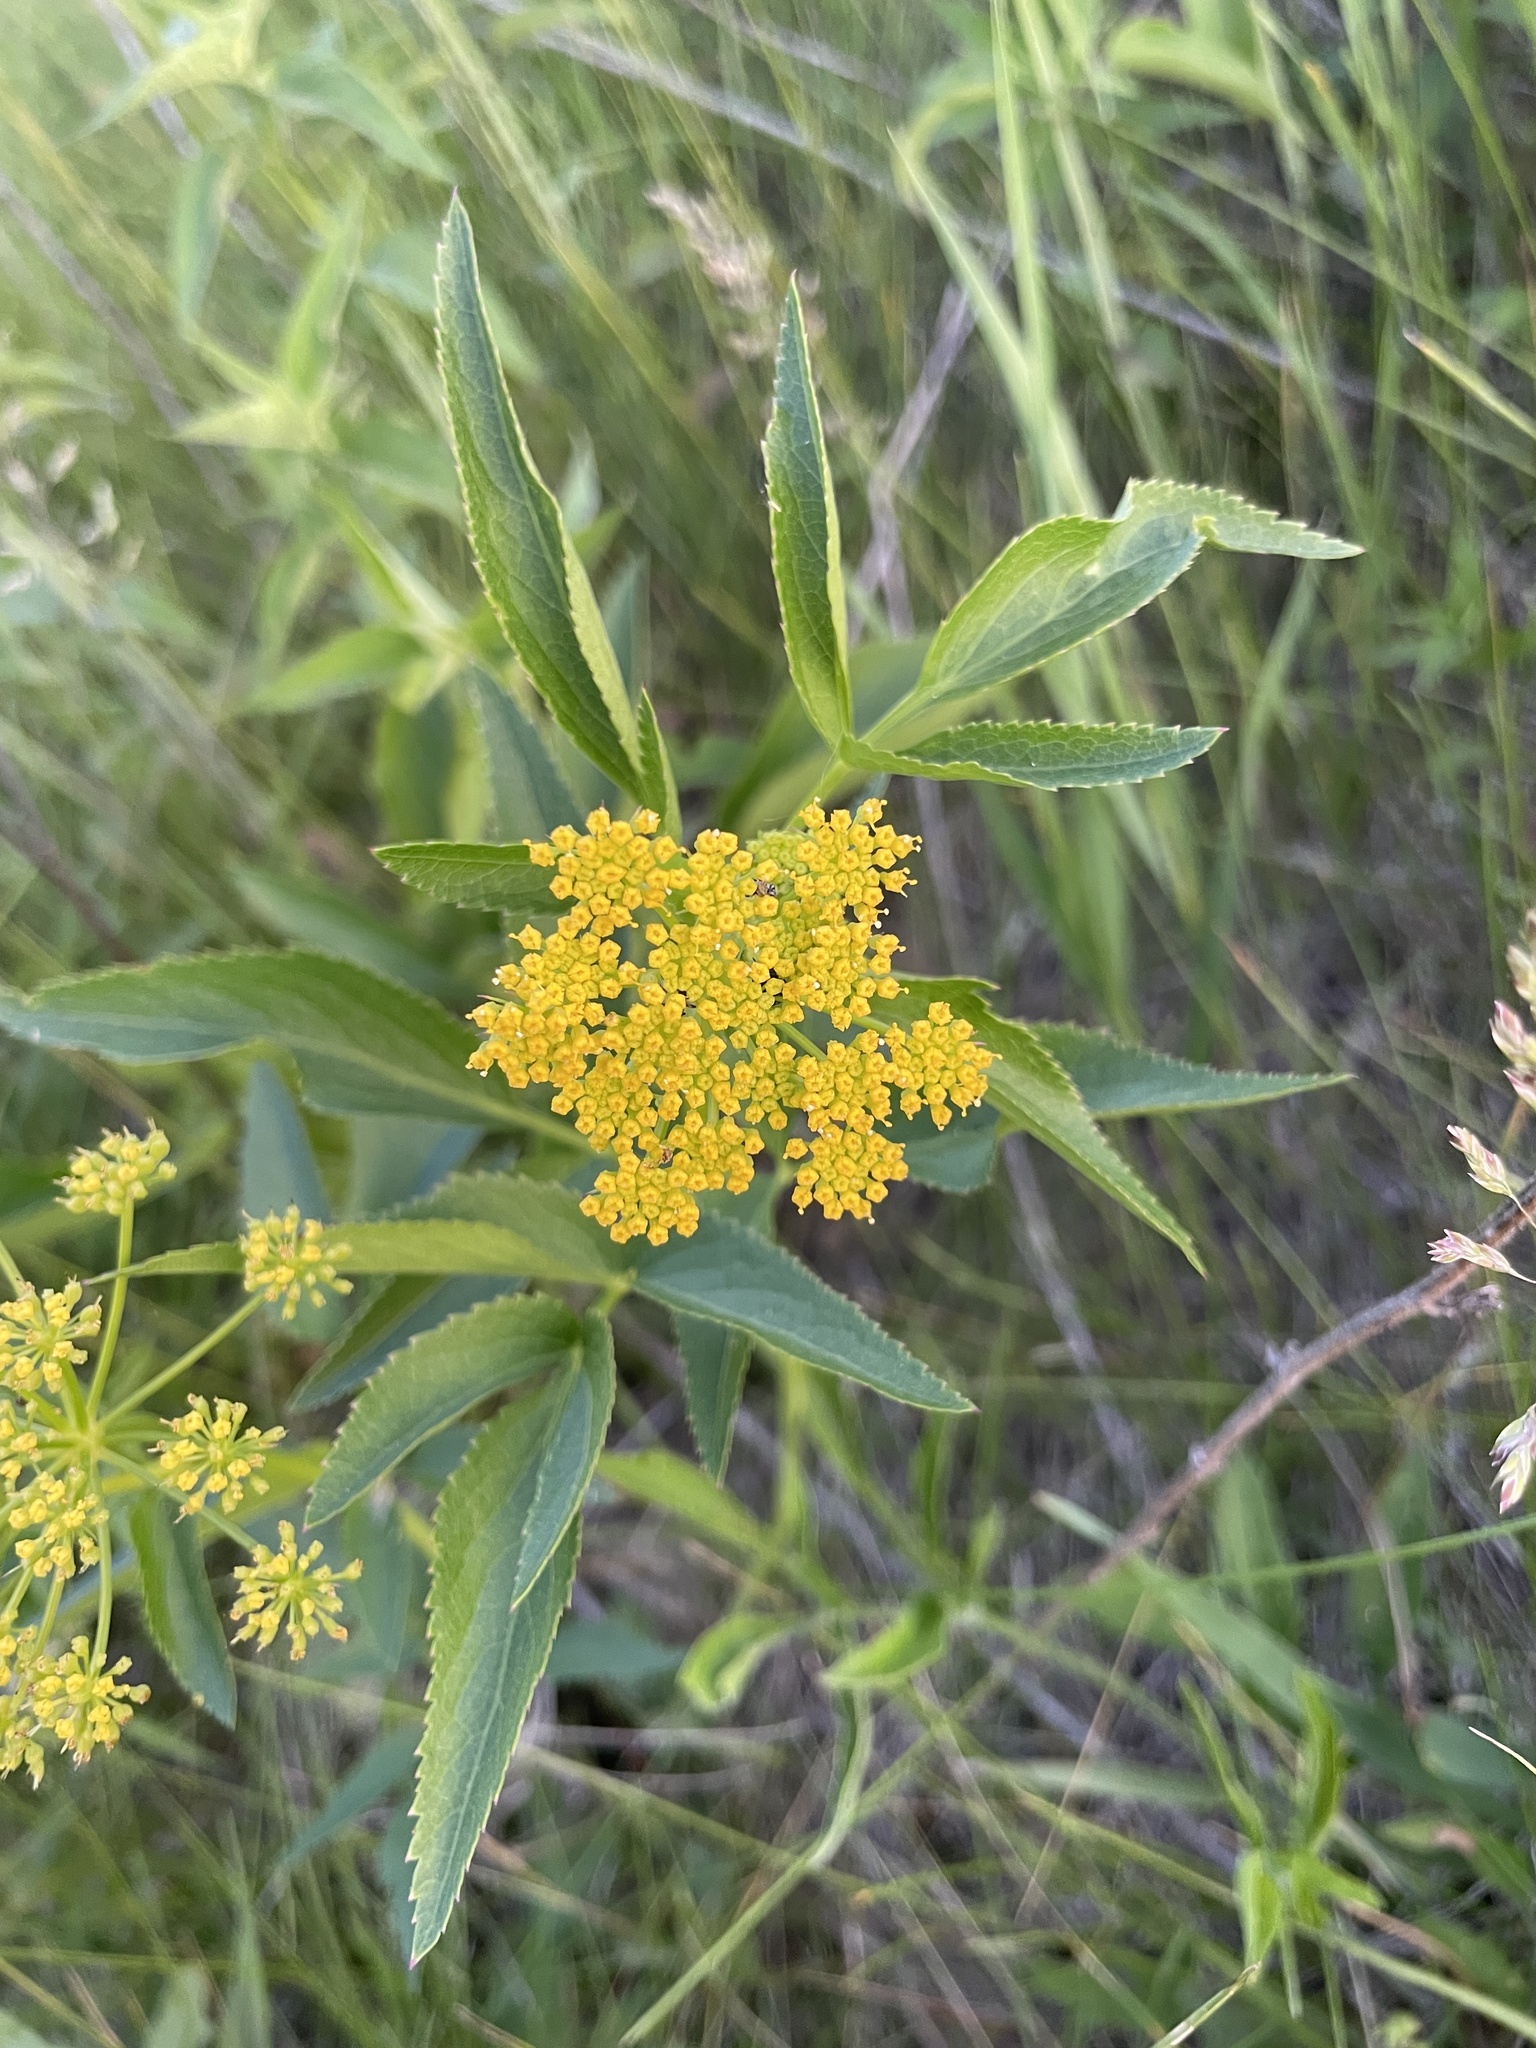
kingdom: Plantae
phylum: Tracheophyta
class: Magnoliopsida
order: Apiales
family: Apiaceae
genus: Zizia
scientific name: Zizia aurea
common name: Golden alexanders
